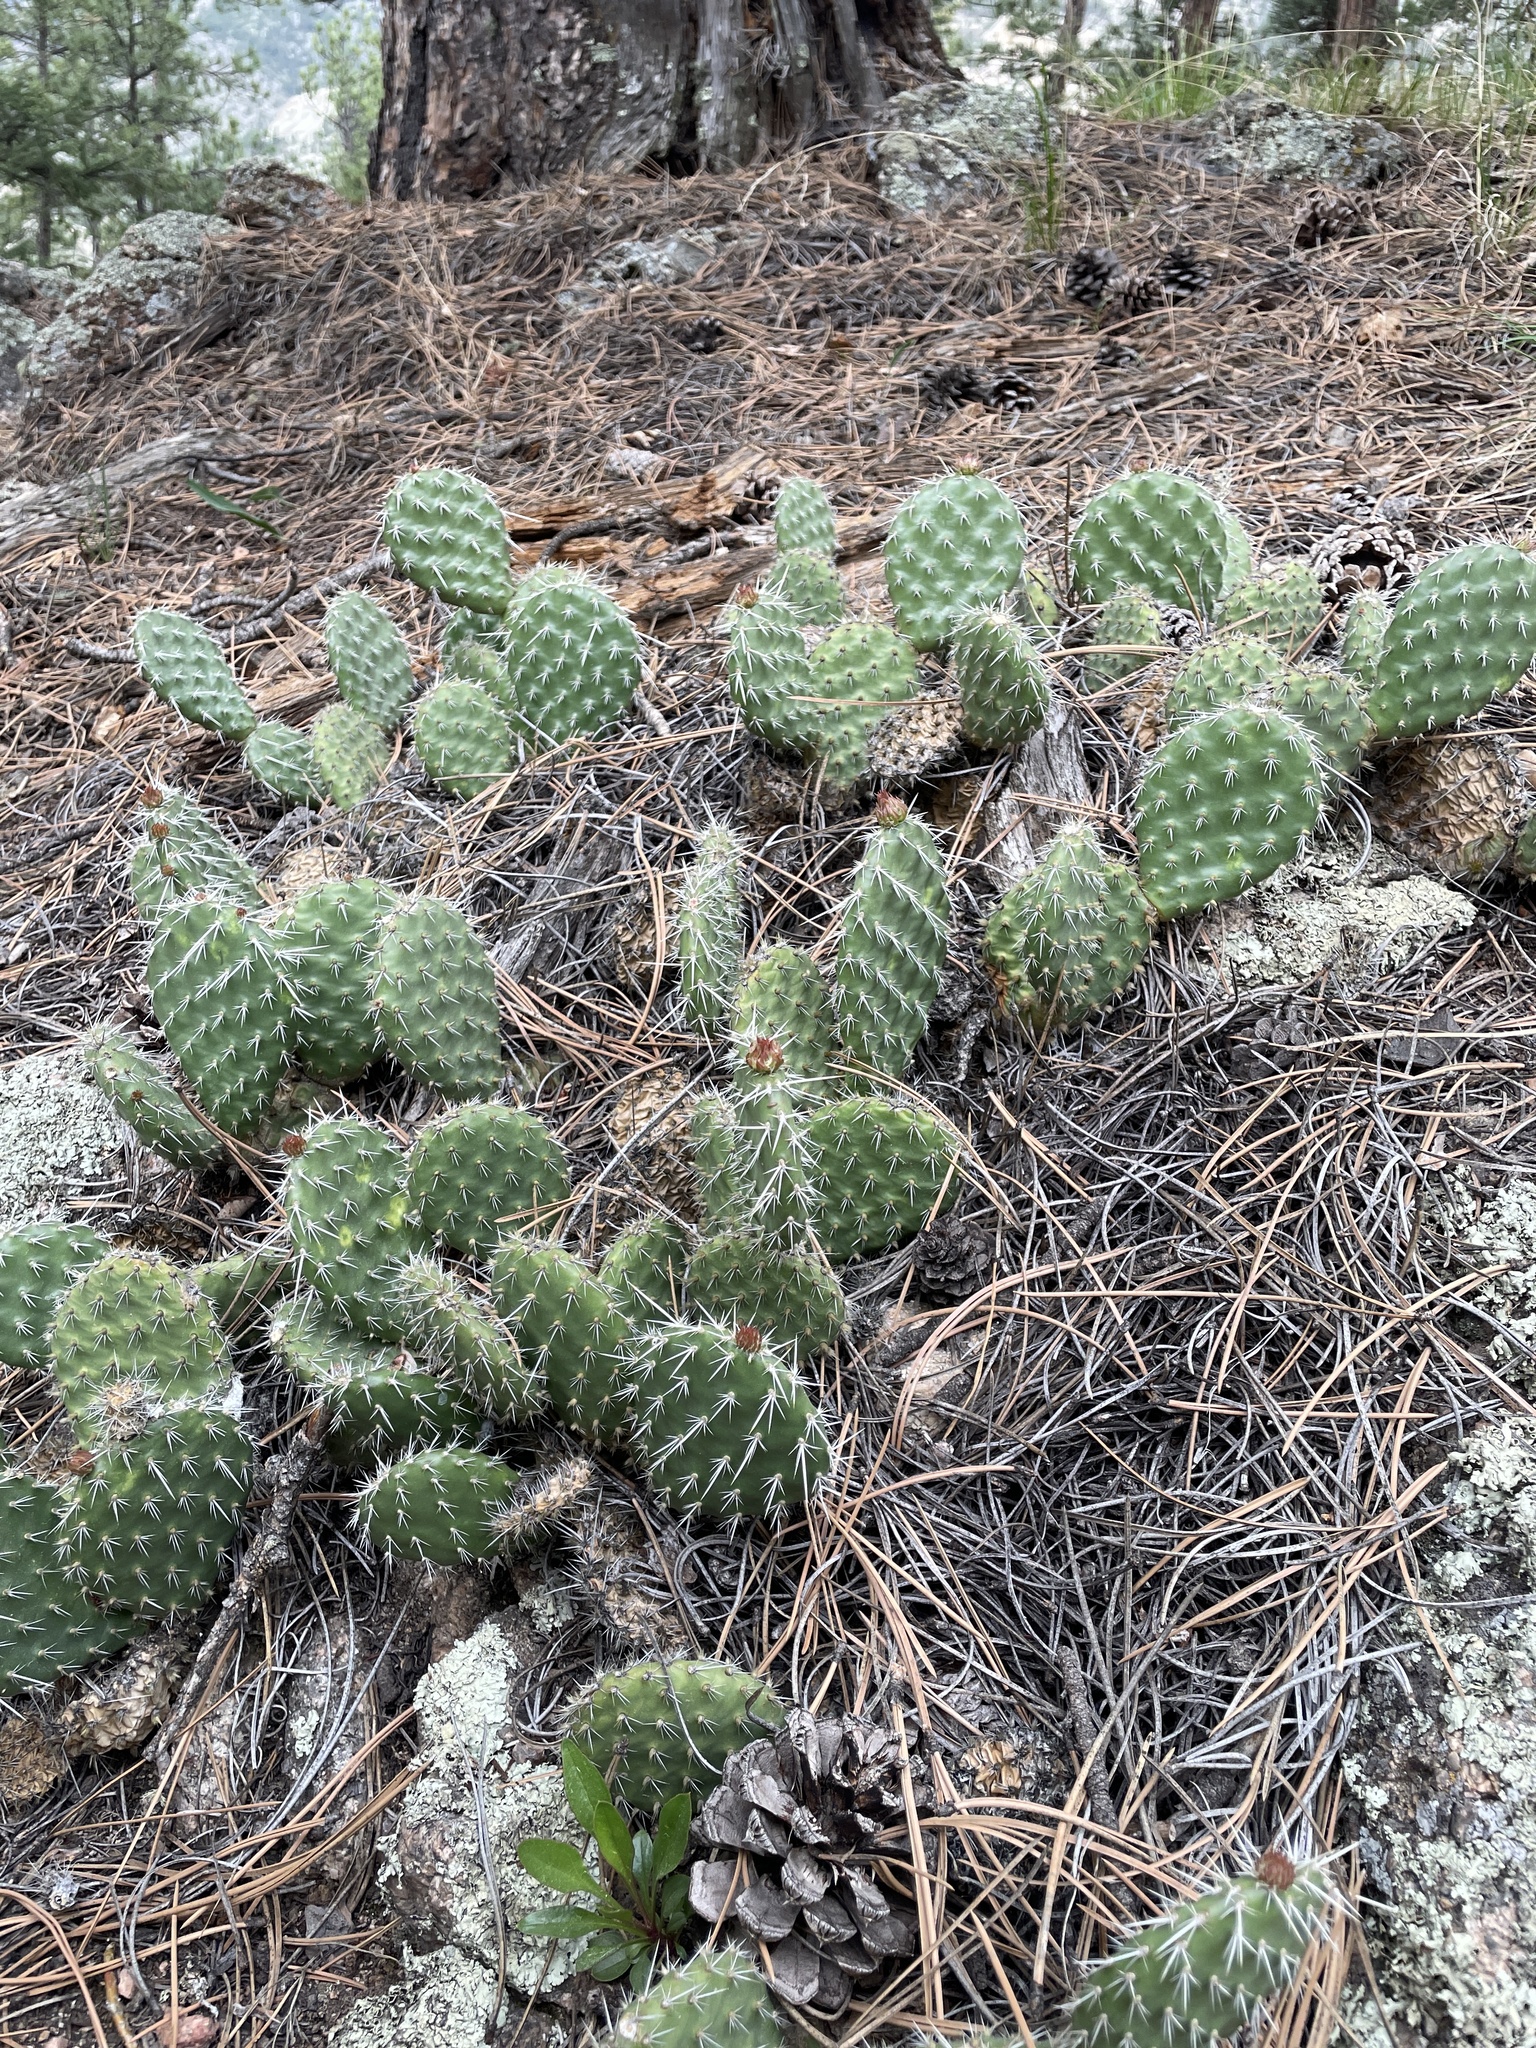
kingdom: Plantae
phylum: Tracheophyta
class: Magnoliopsida
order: Caryophyllales
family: Cactaceae
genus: Opuntia
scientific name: Opuntia polyacantha
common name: Plains prickly-pear
